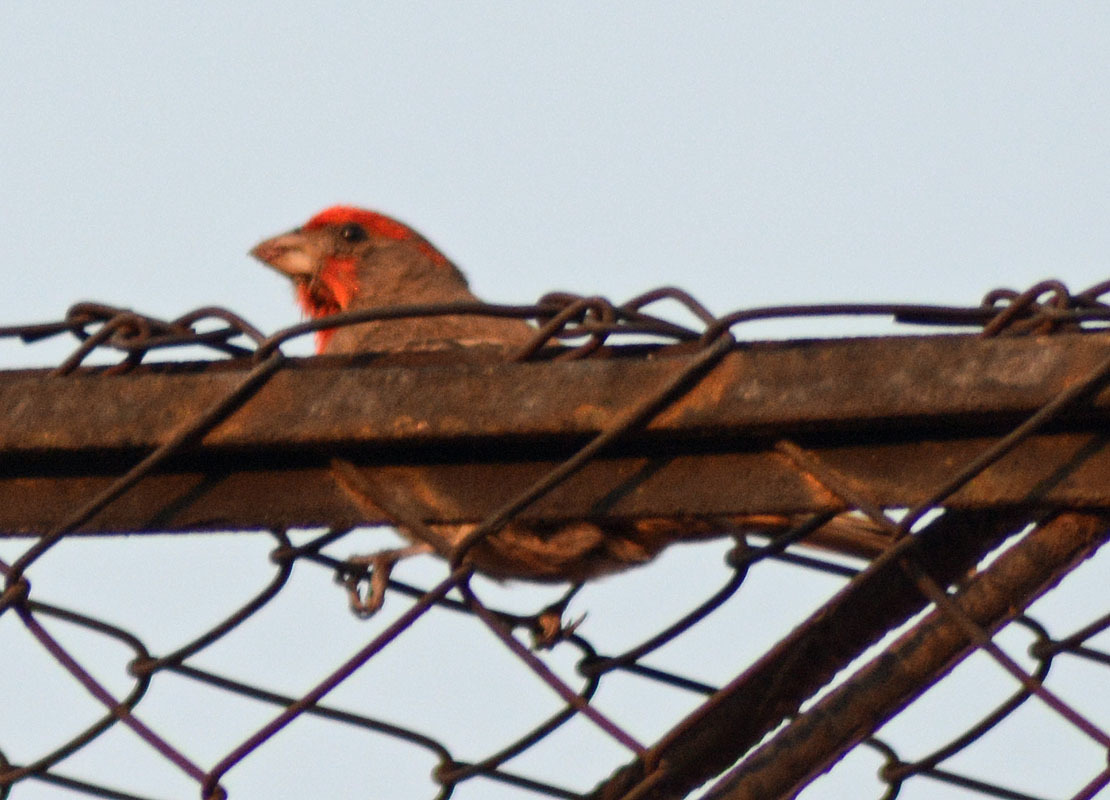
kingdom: Animalia
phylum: Chordata
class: Aves
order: Passeriformes
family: Fringillidae
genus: Haemorhous
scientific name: Haemorhous mexicanus
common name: House finch
